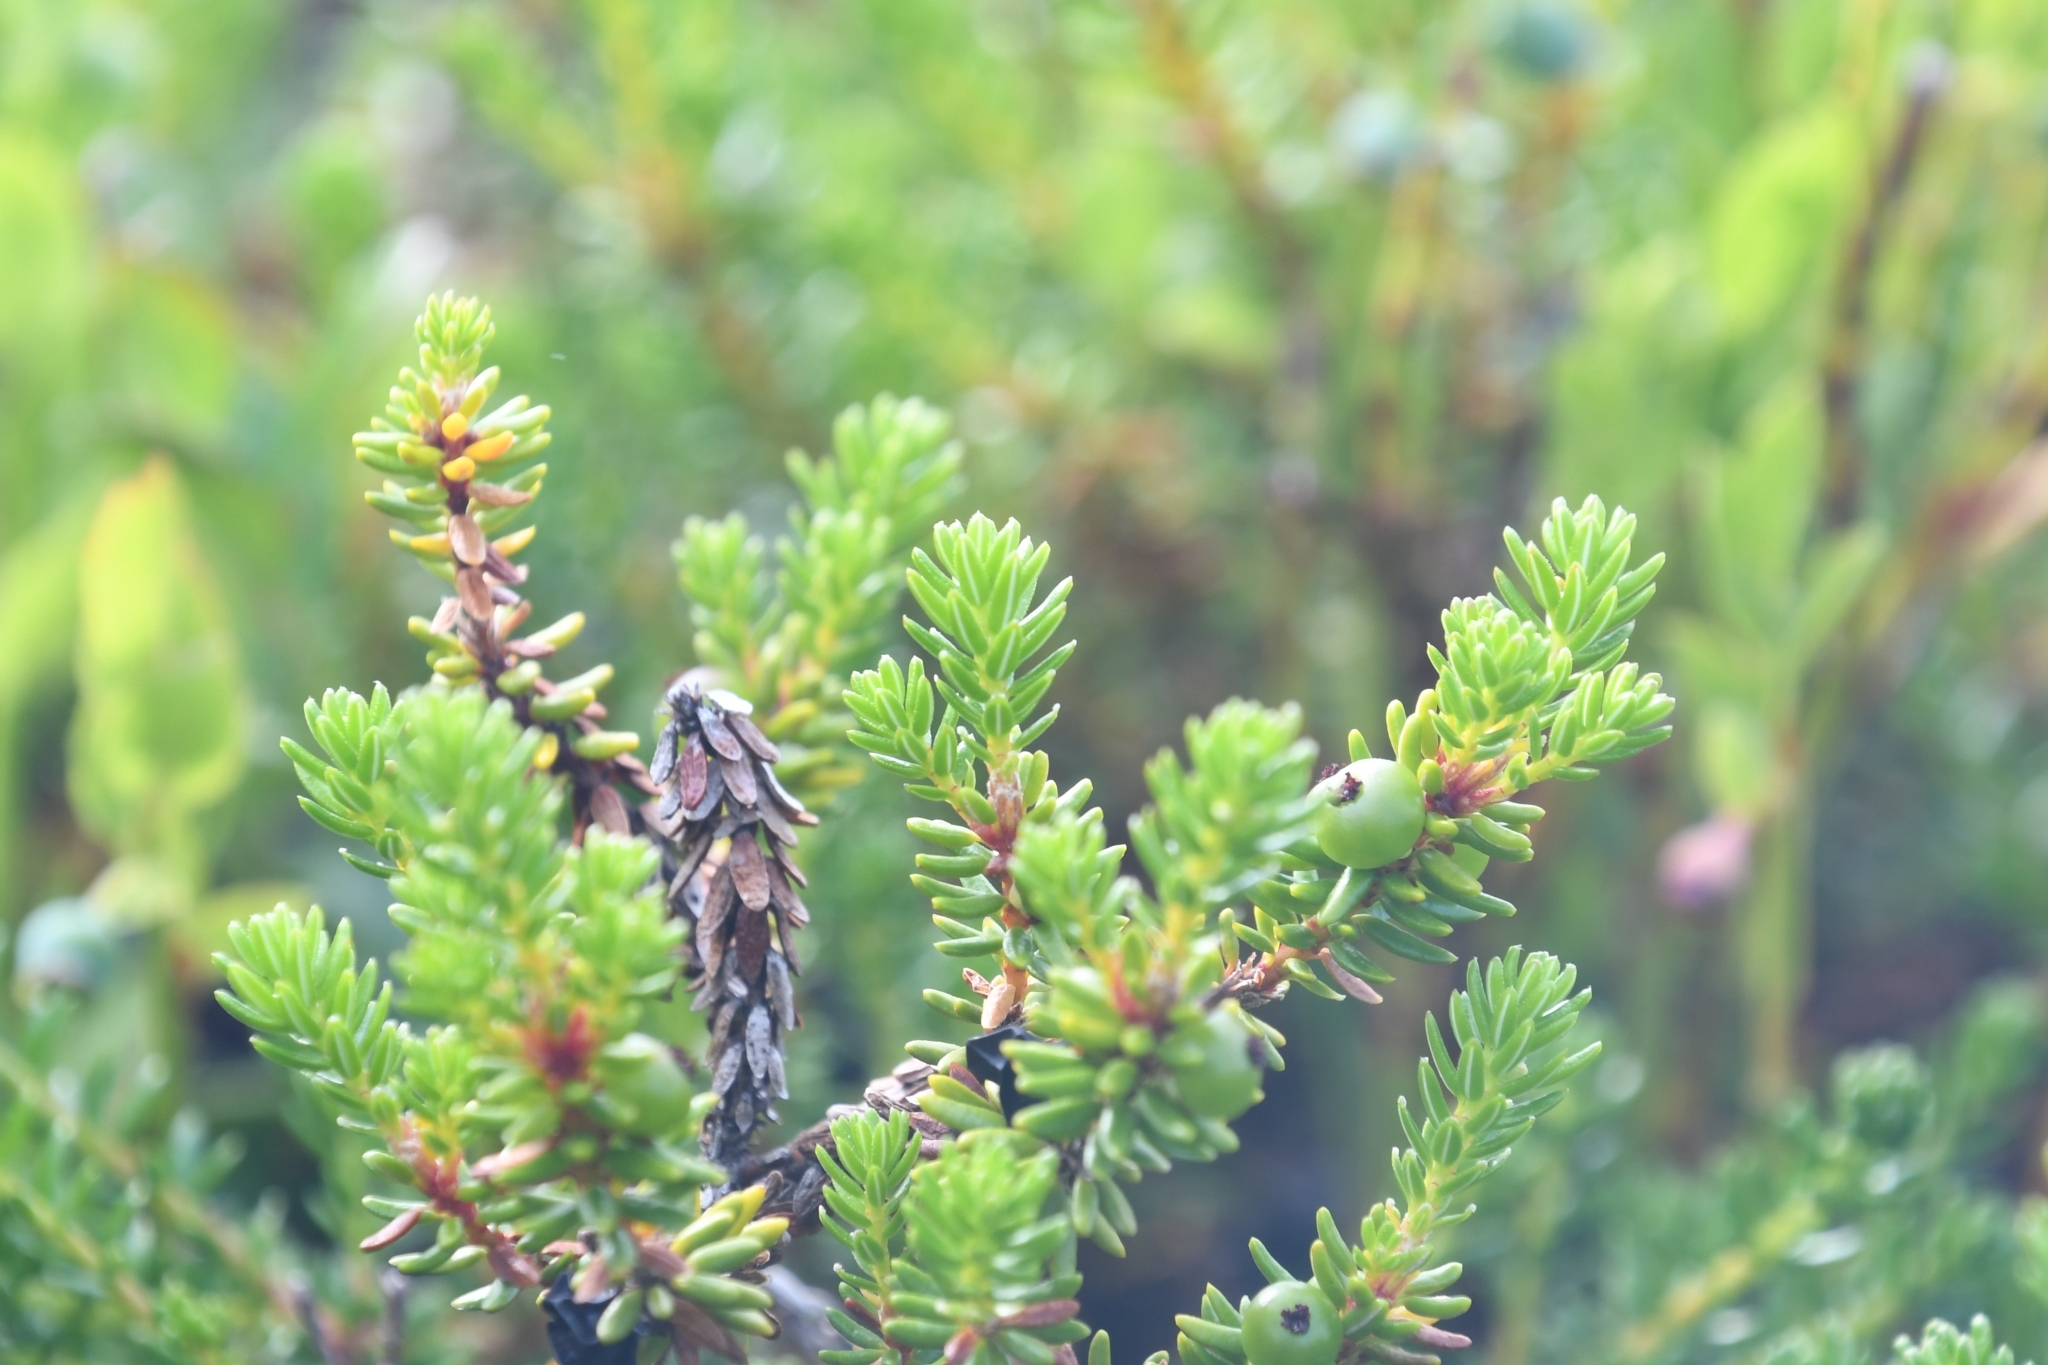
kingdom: Plantae
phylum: Tracheophyta
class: Magnoliopsida
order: Ericales
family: Ericaceae
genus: Empetrum
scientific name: Empetrum nigrum
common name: Black crowberry
